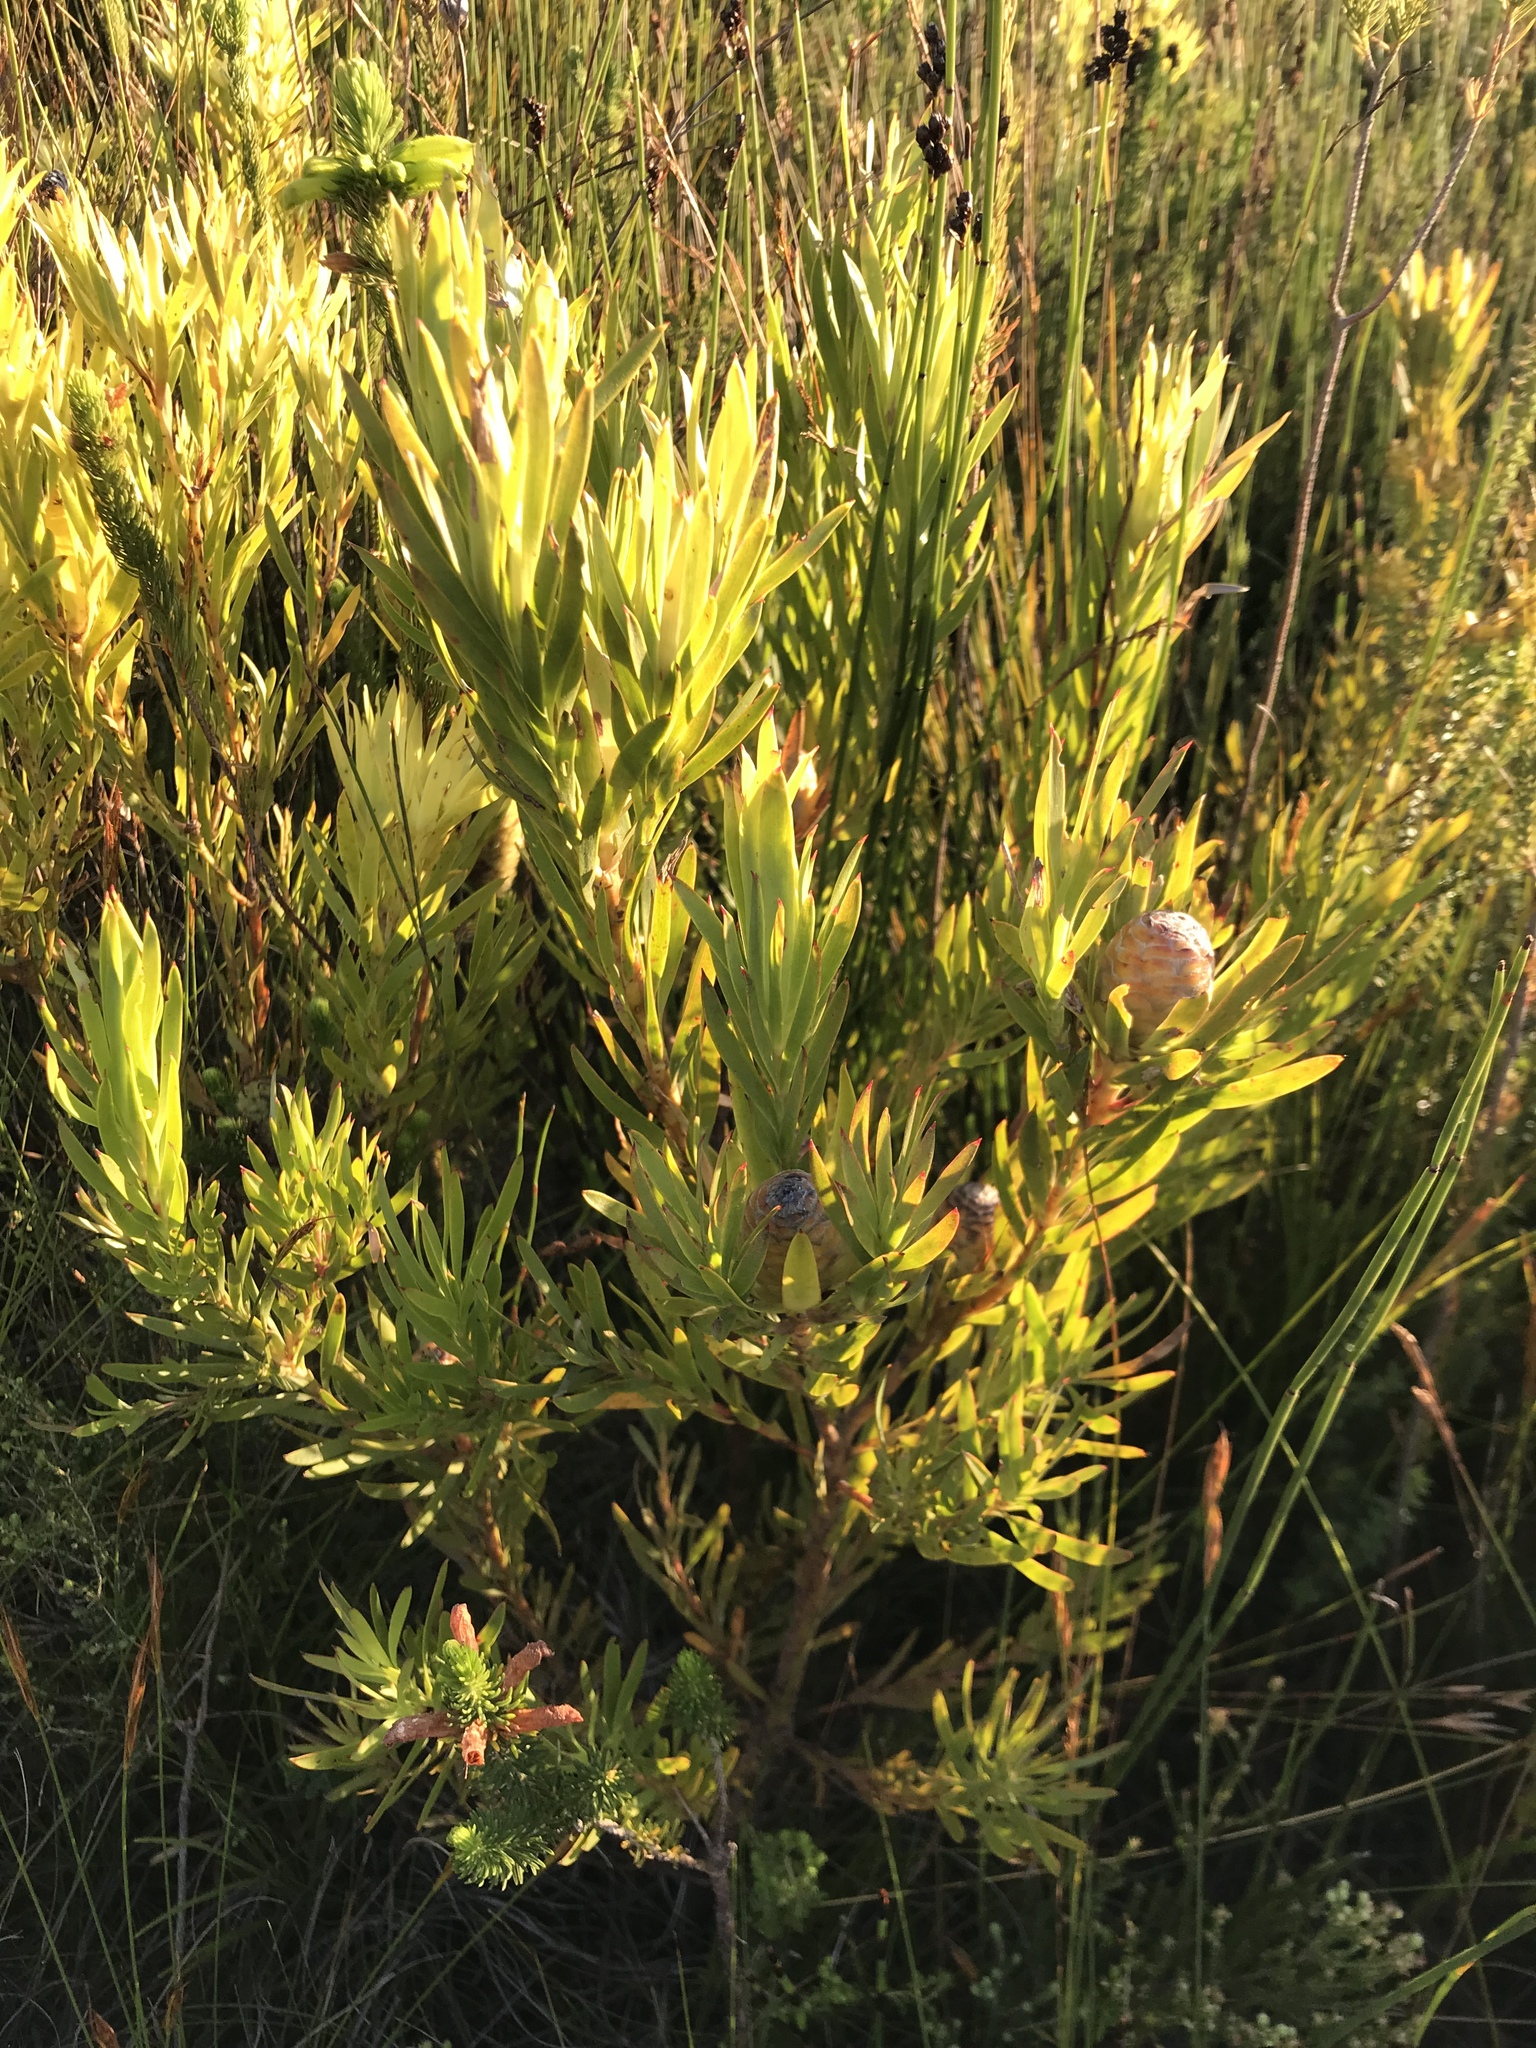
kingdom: Plantae
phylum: Tracheophyta
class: Magnoliopsida
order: Proteales
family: Proteaceae
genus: Leucadendron
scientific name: Leucadendron xanthoconus
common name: Sickle-leaf conebush
